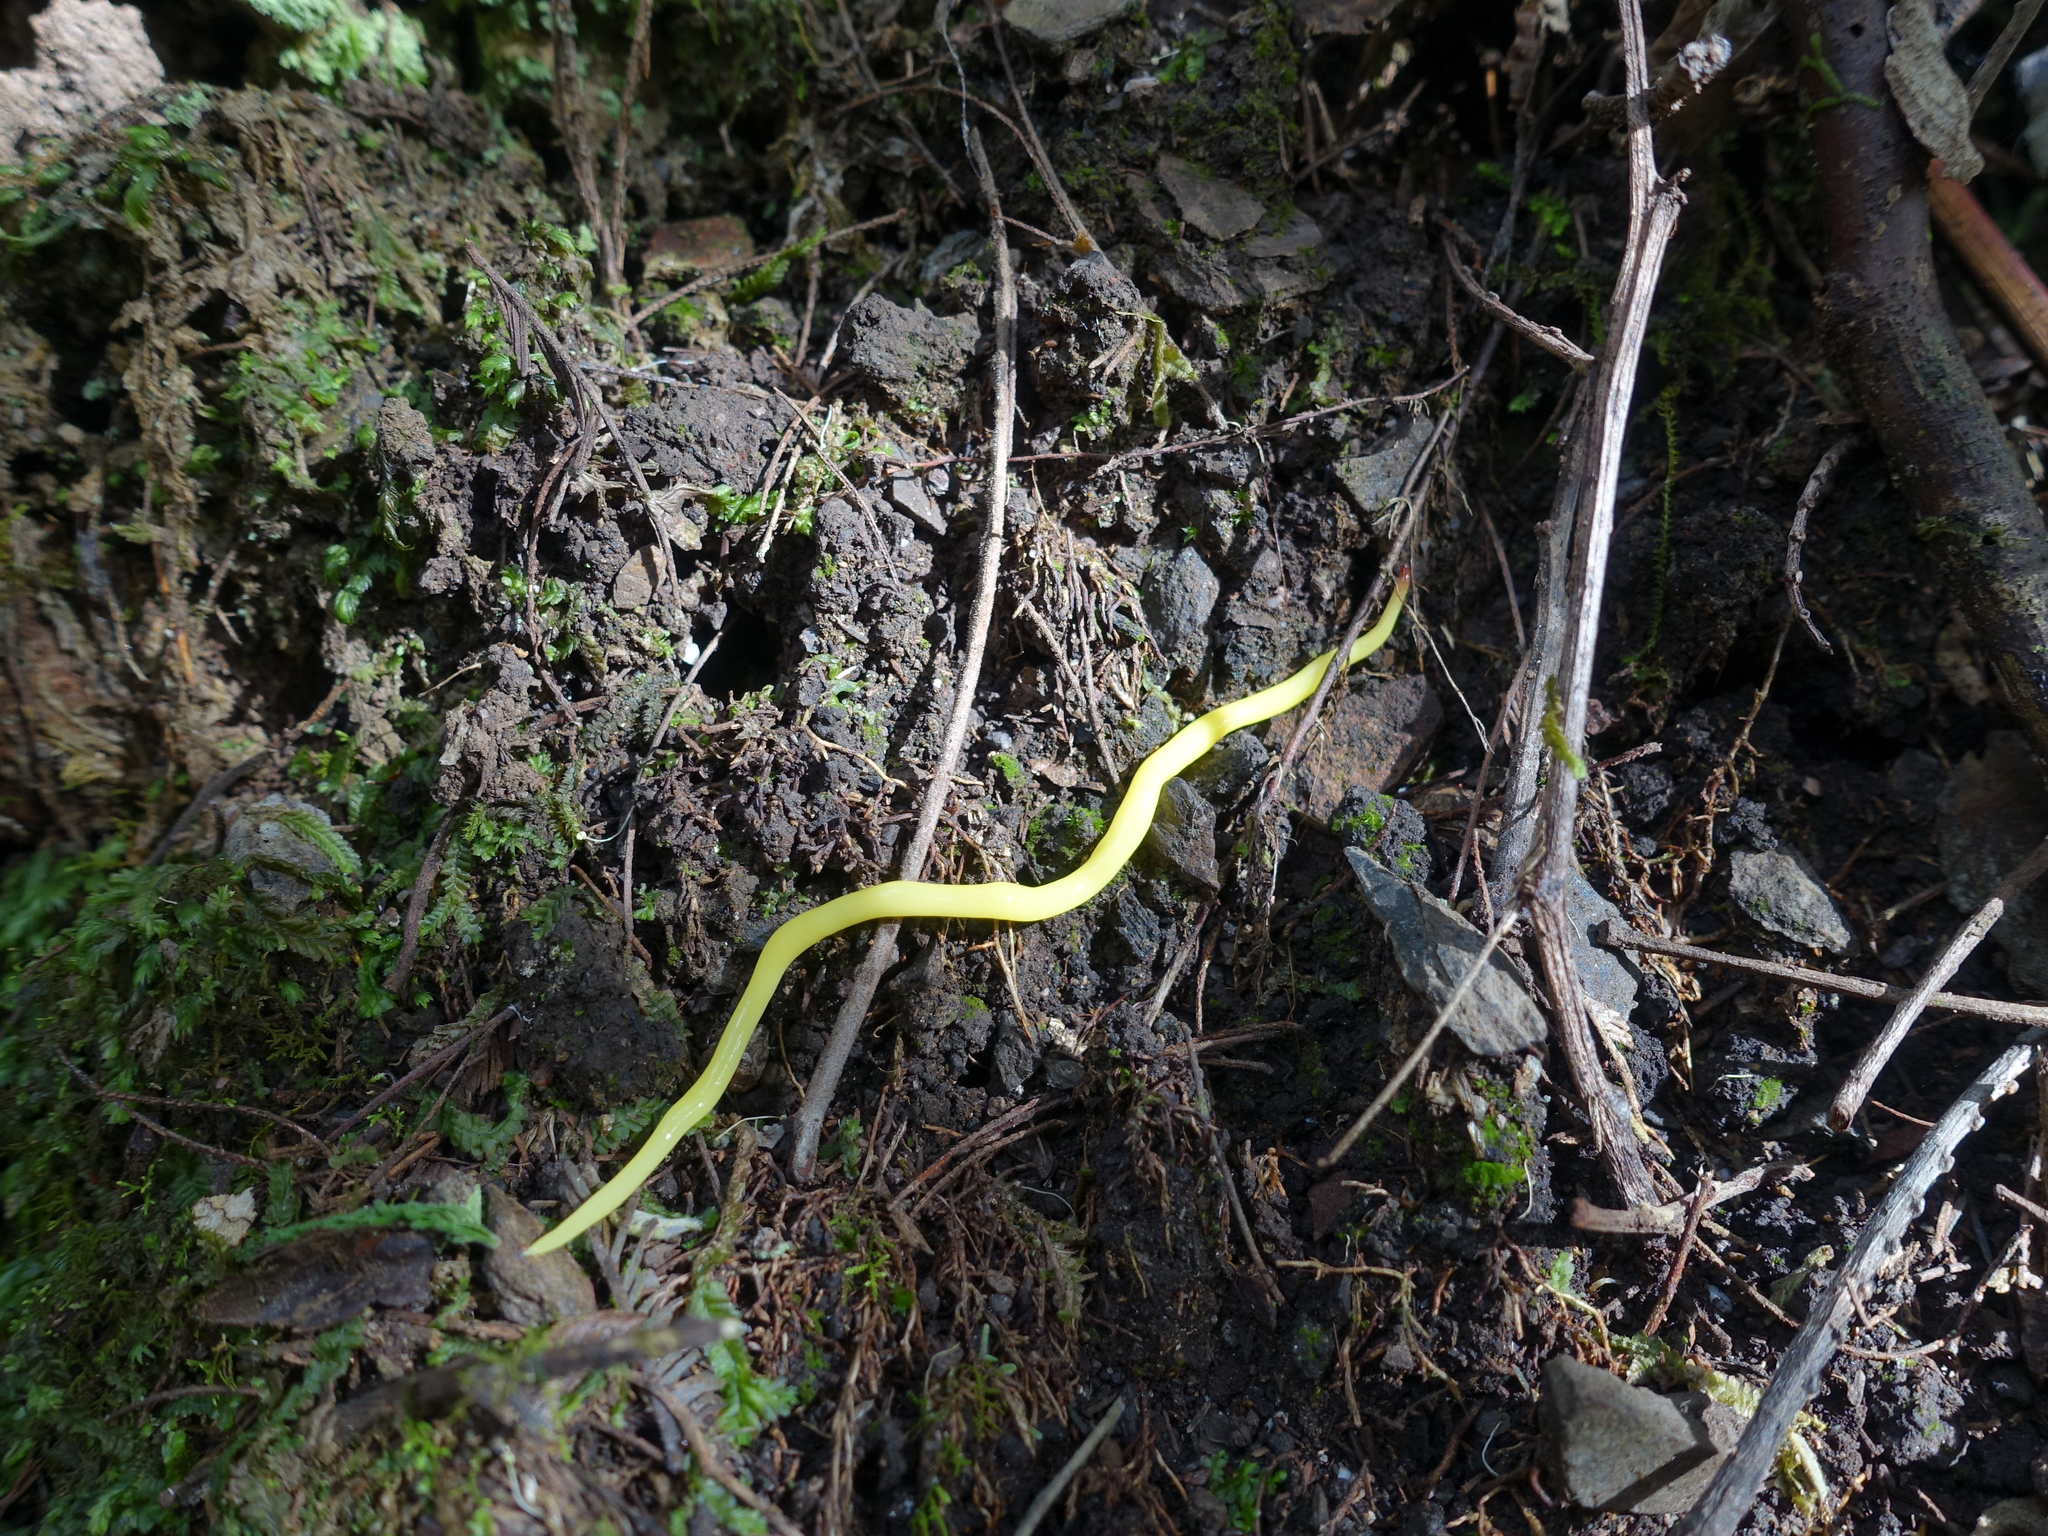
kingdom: Animalia
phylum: Platyhelminthes
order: Tricladida
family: Geoplanidae
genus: Fletchamia
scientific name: Fletchamia sugdeni
